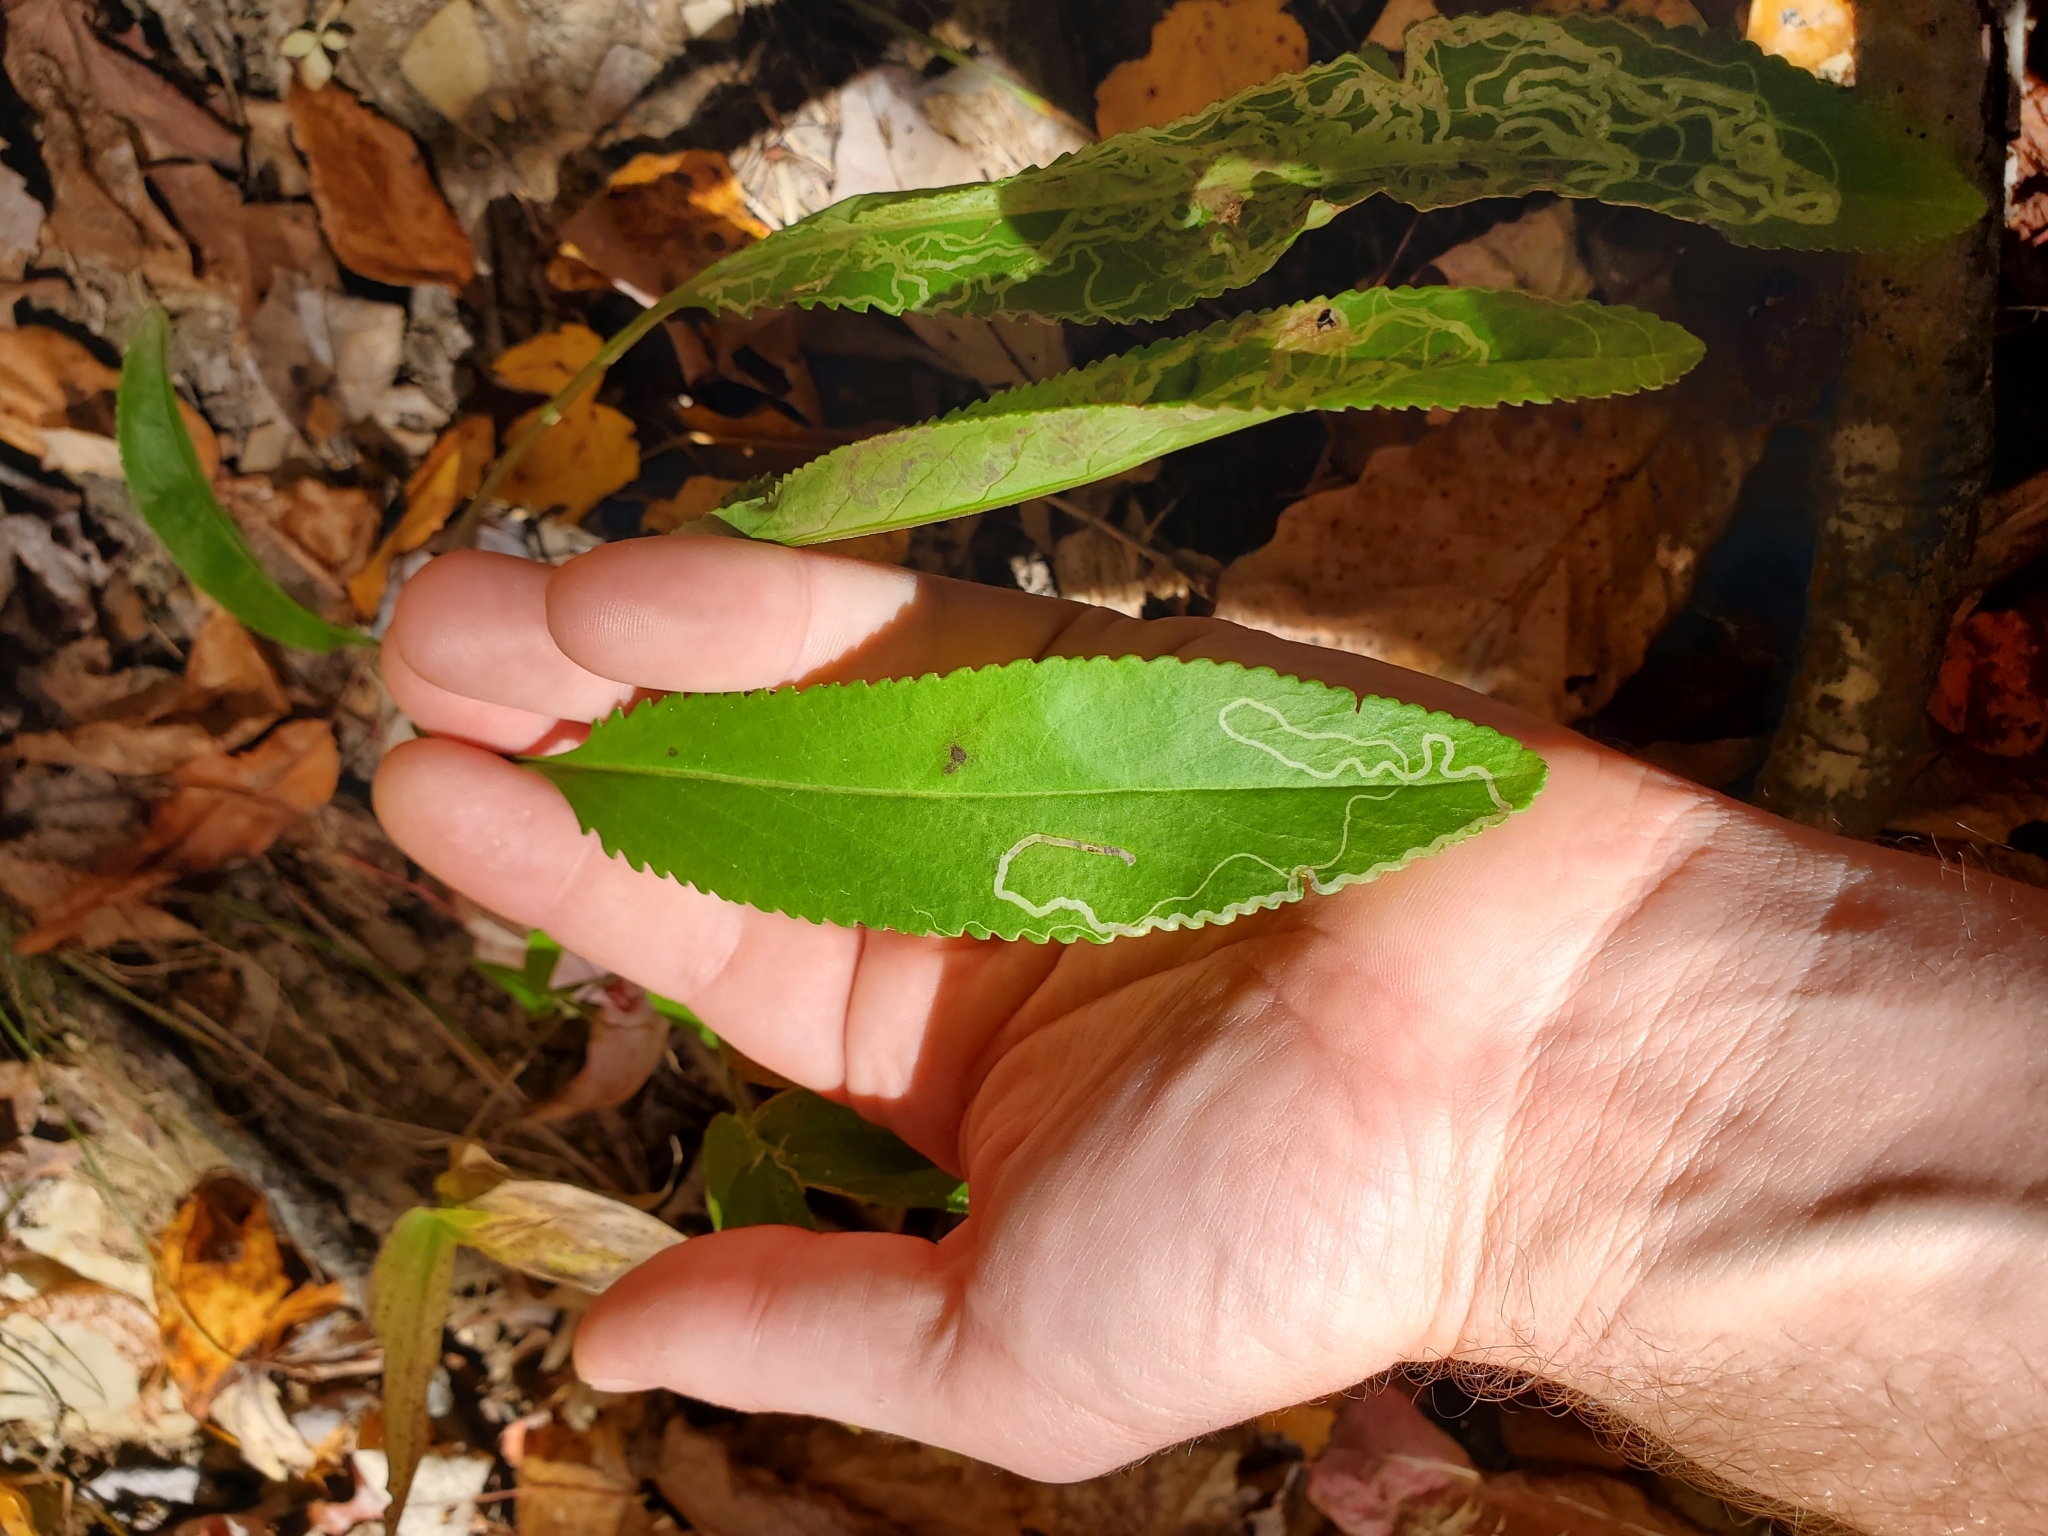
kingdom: Plantae
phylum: Tracheophyta
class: Magnoliopsida
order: Asterales
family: Asteraceae
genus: Packera
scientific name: Packera anonyma
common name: Small ragwort
